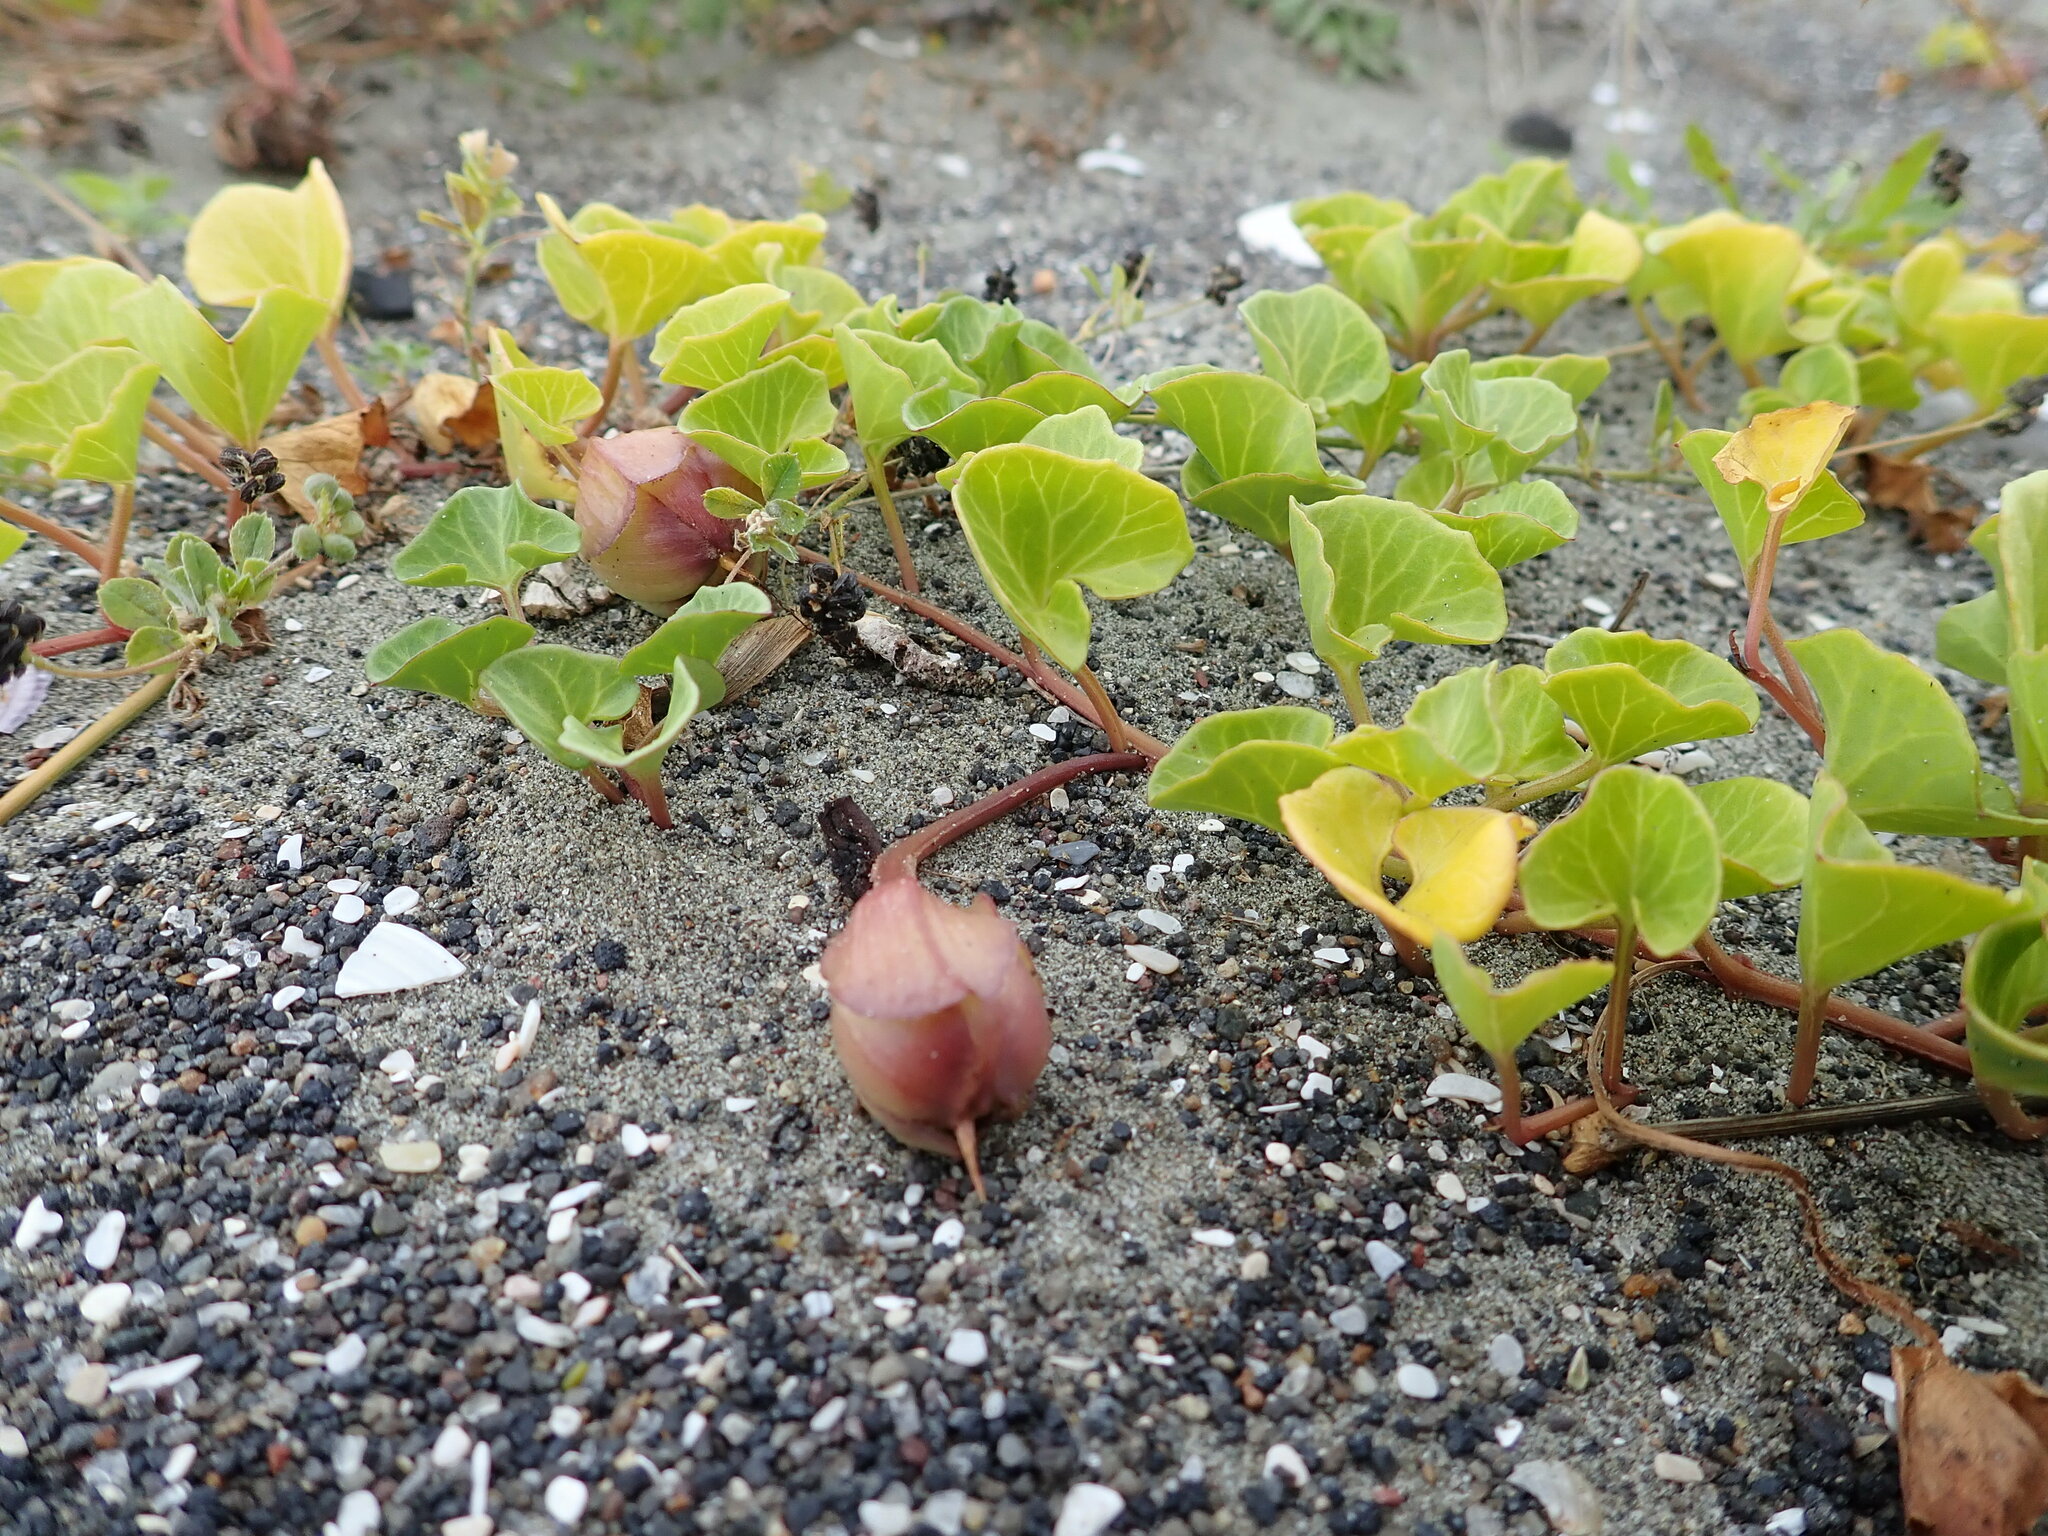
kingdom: Plantae
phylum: Tracheophyta
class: Magnoliopsida
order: Solanales
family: Convolvulaceae
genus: Calystegia
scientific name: Calystegia soldanella
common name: Sea bindweed
